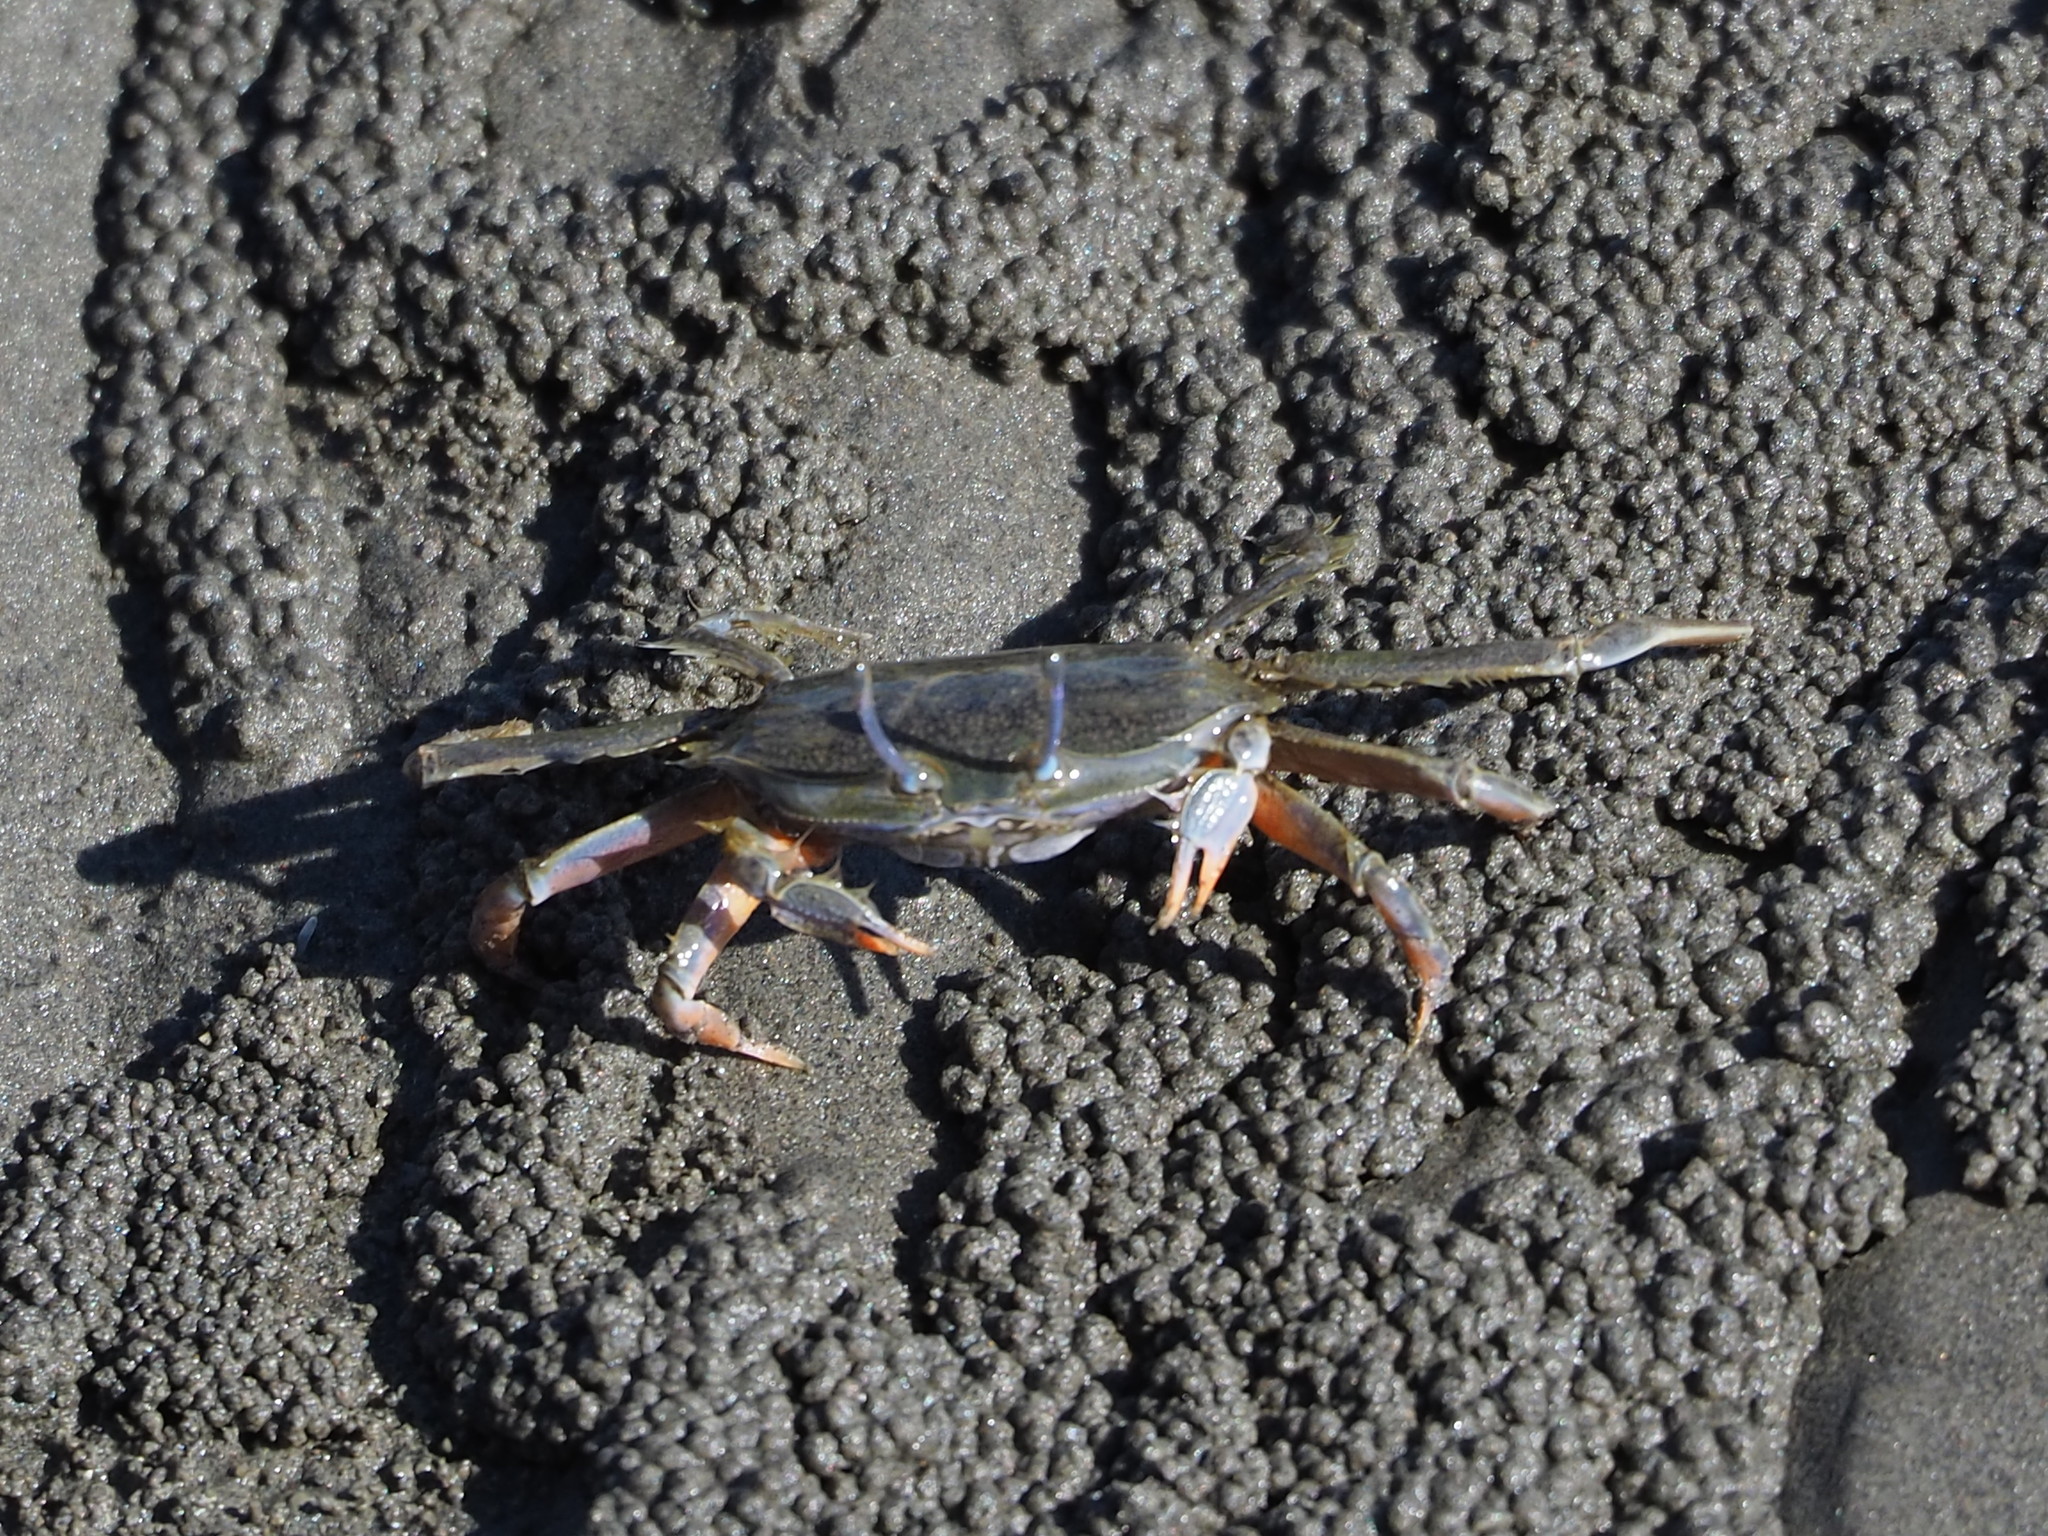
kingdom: Animalia
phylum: Arthropoda
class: Malacostraca
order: Decapoda
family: Macrophthalmidae
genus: Macrophthalmus
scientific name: Macrophthalmus abbreviatus
